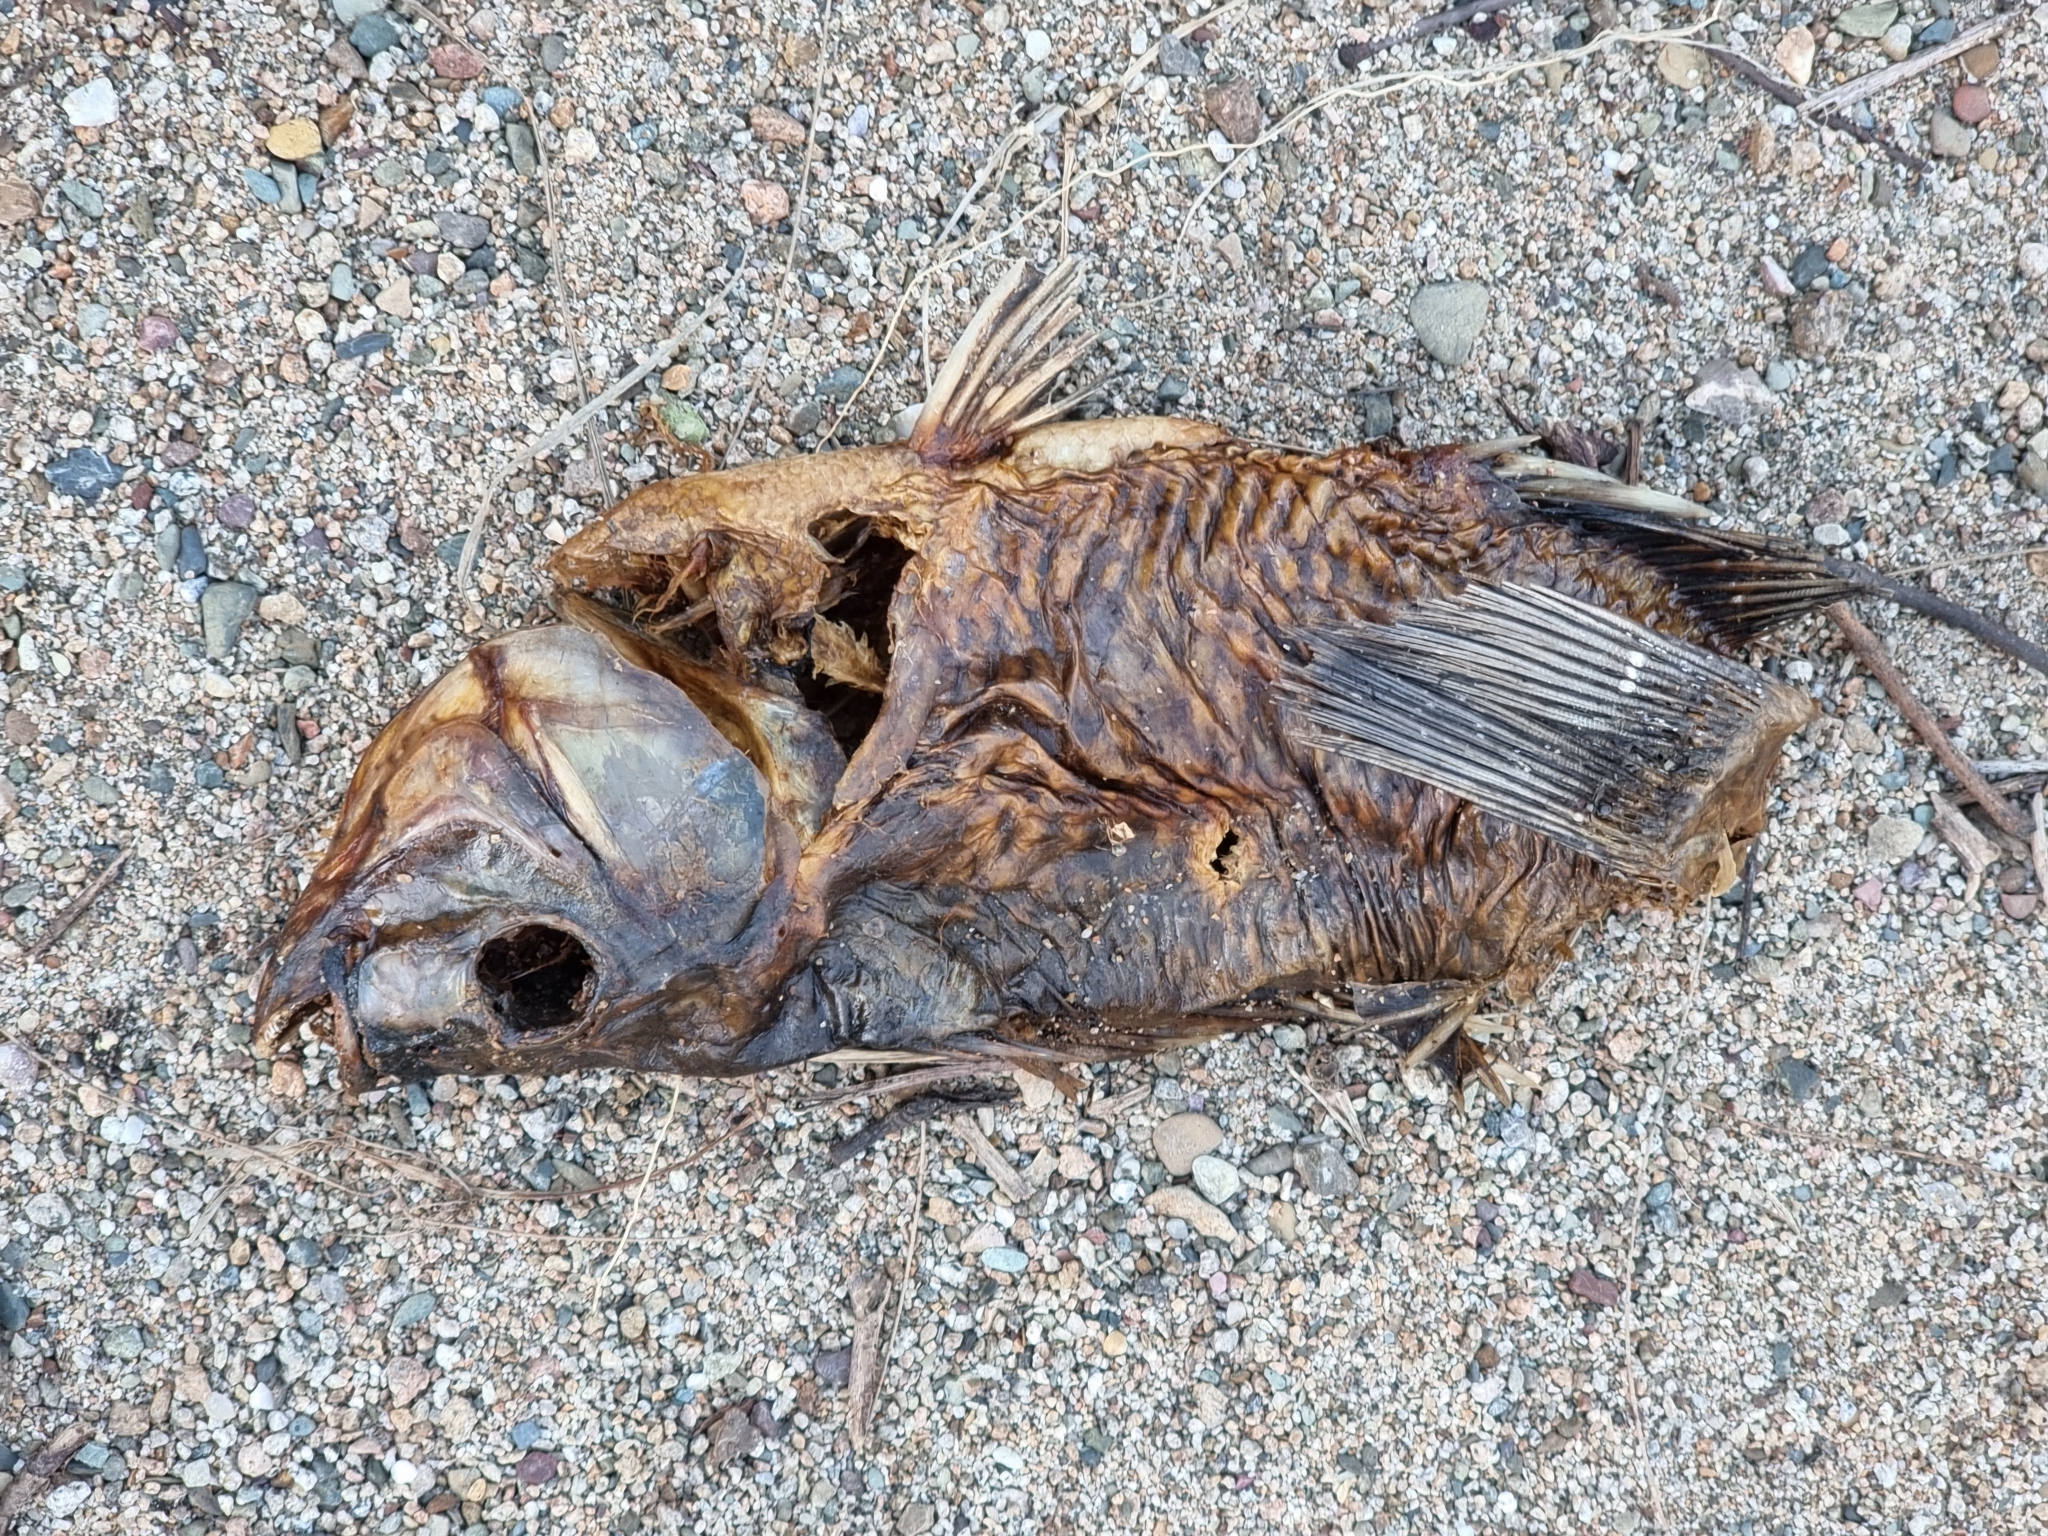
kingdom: Animalia
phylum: Chordata
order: Perciformes
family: Cichlidae
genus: Oreochromis
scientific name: Oreochromis mossambicus
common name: Mozambique tilapia
